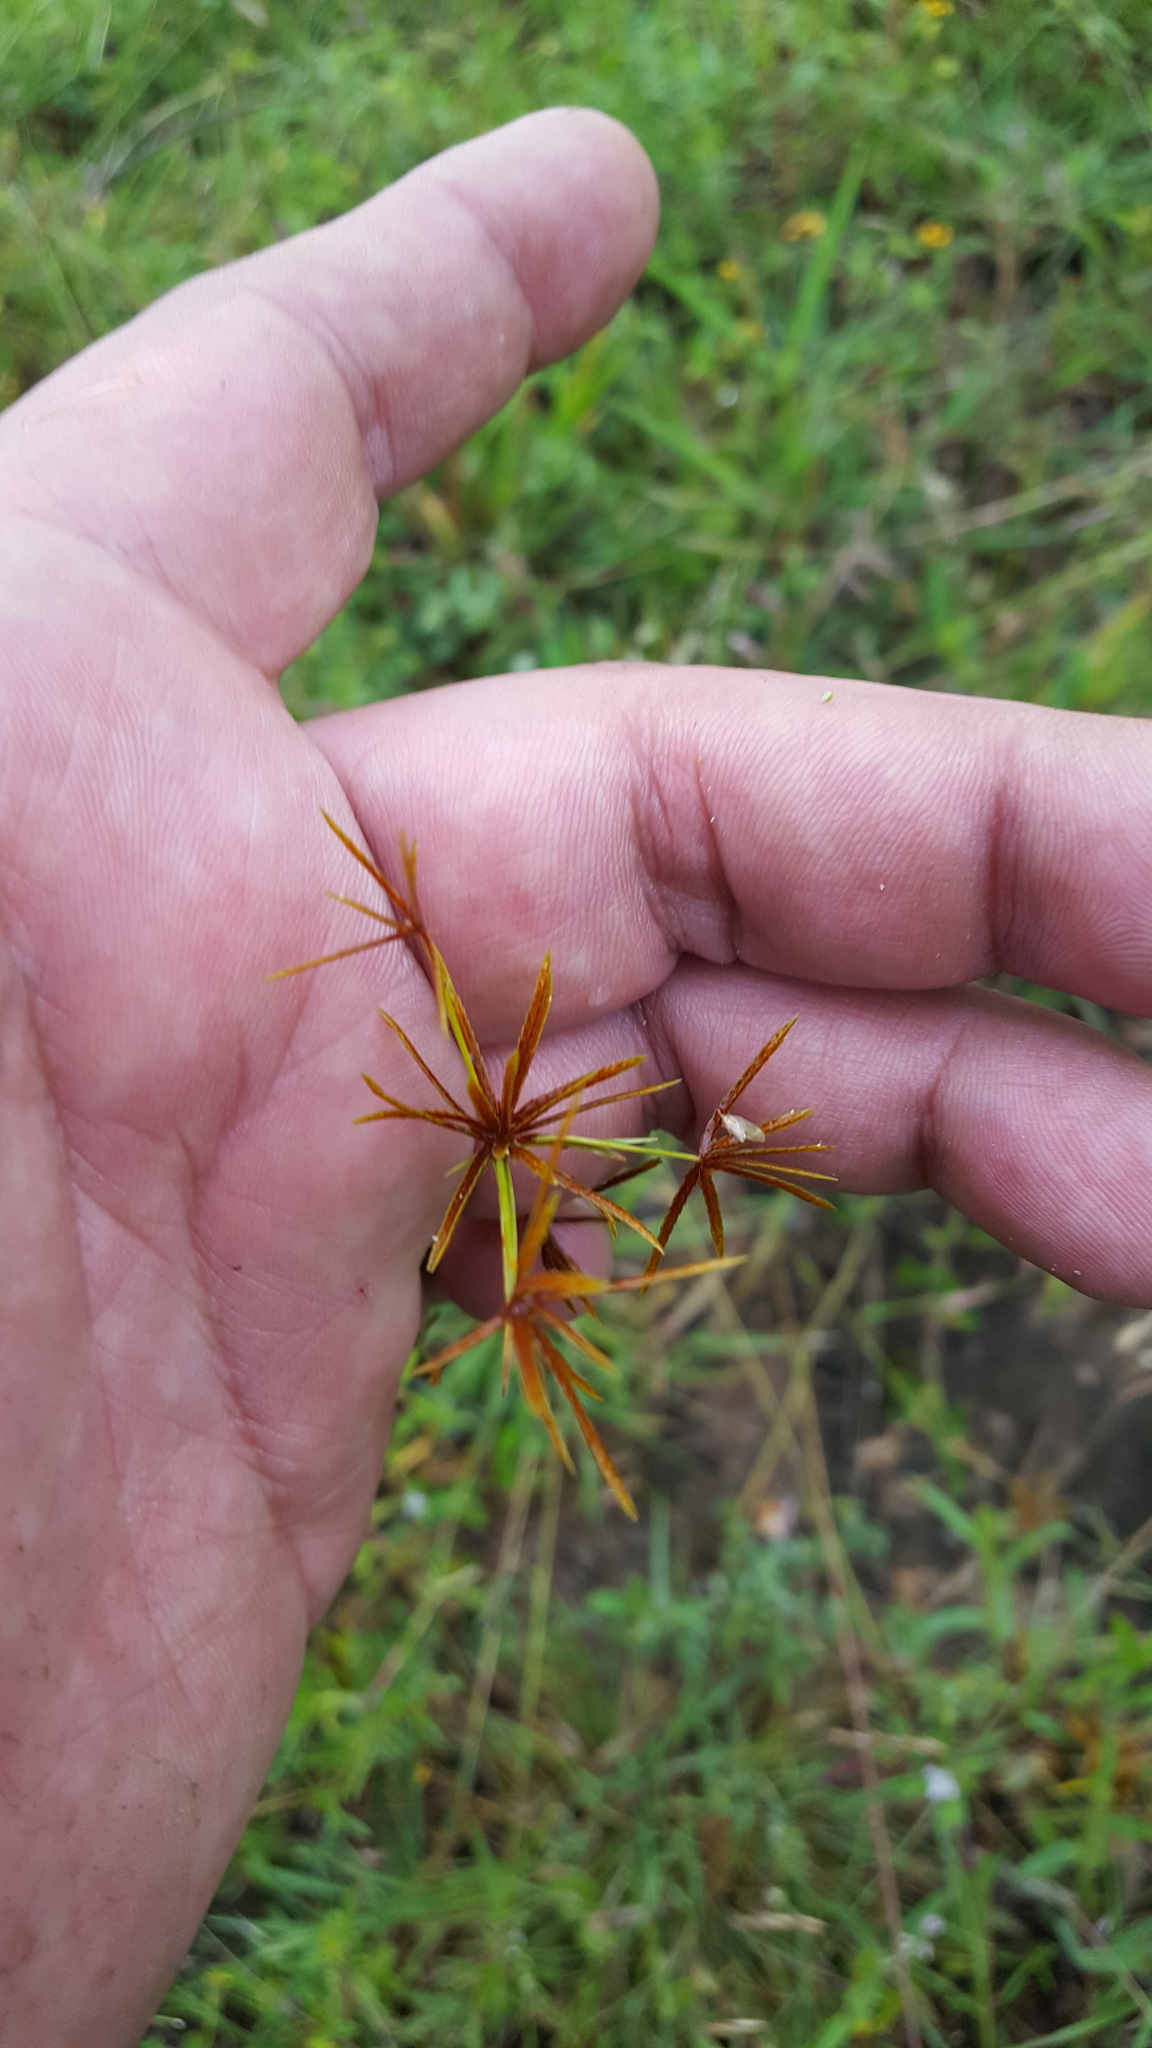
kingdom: Plantae
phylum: Tracheophyta
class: Liliopsida
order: Poales
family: Cyperaceae
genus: Cyperus
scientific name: Cyperus amabilis
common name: Foothill flat sedge
